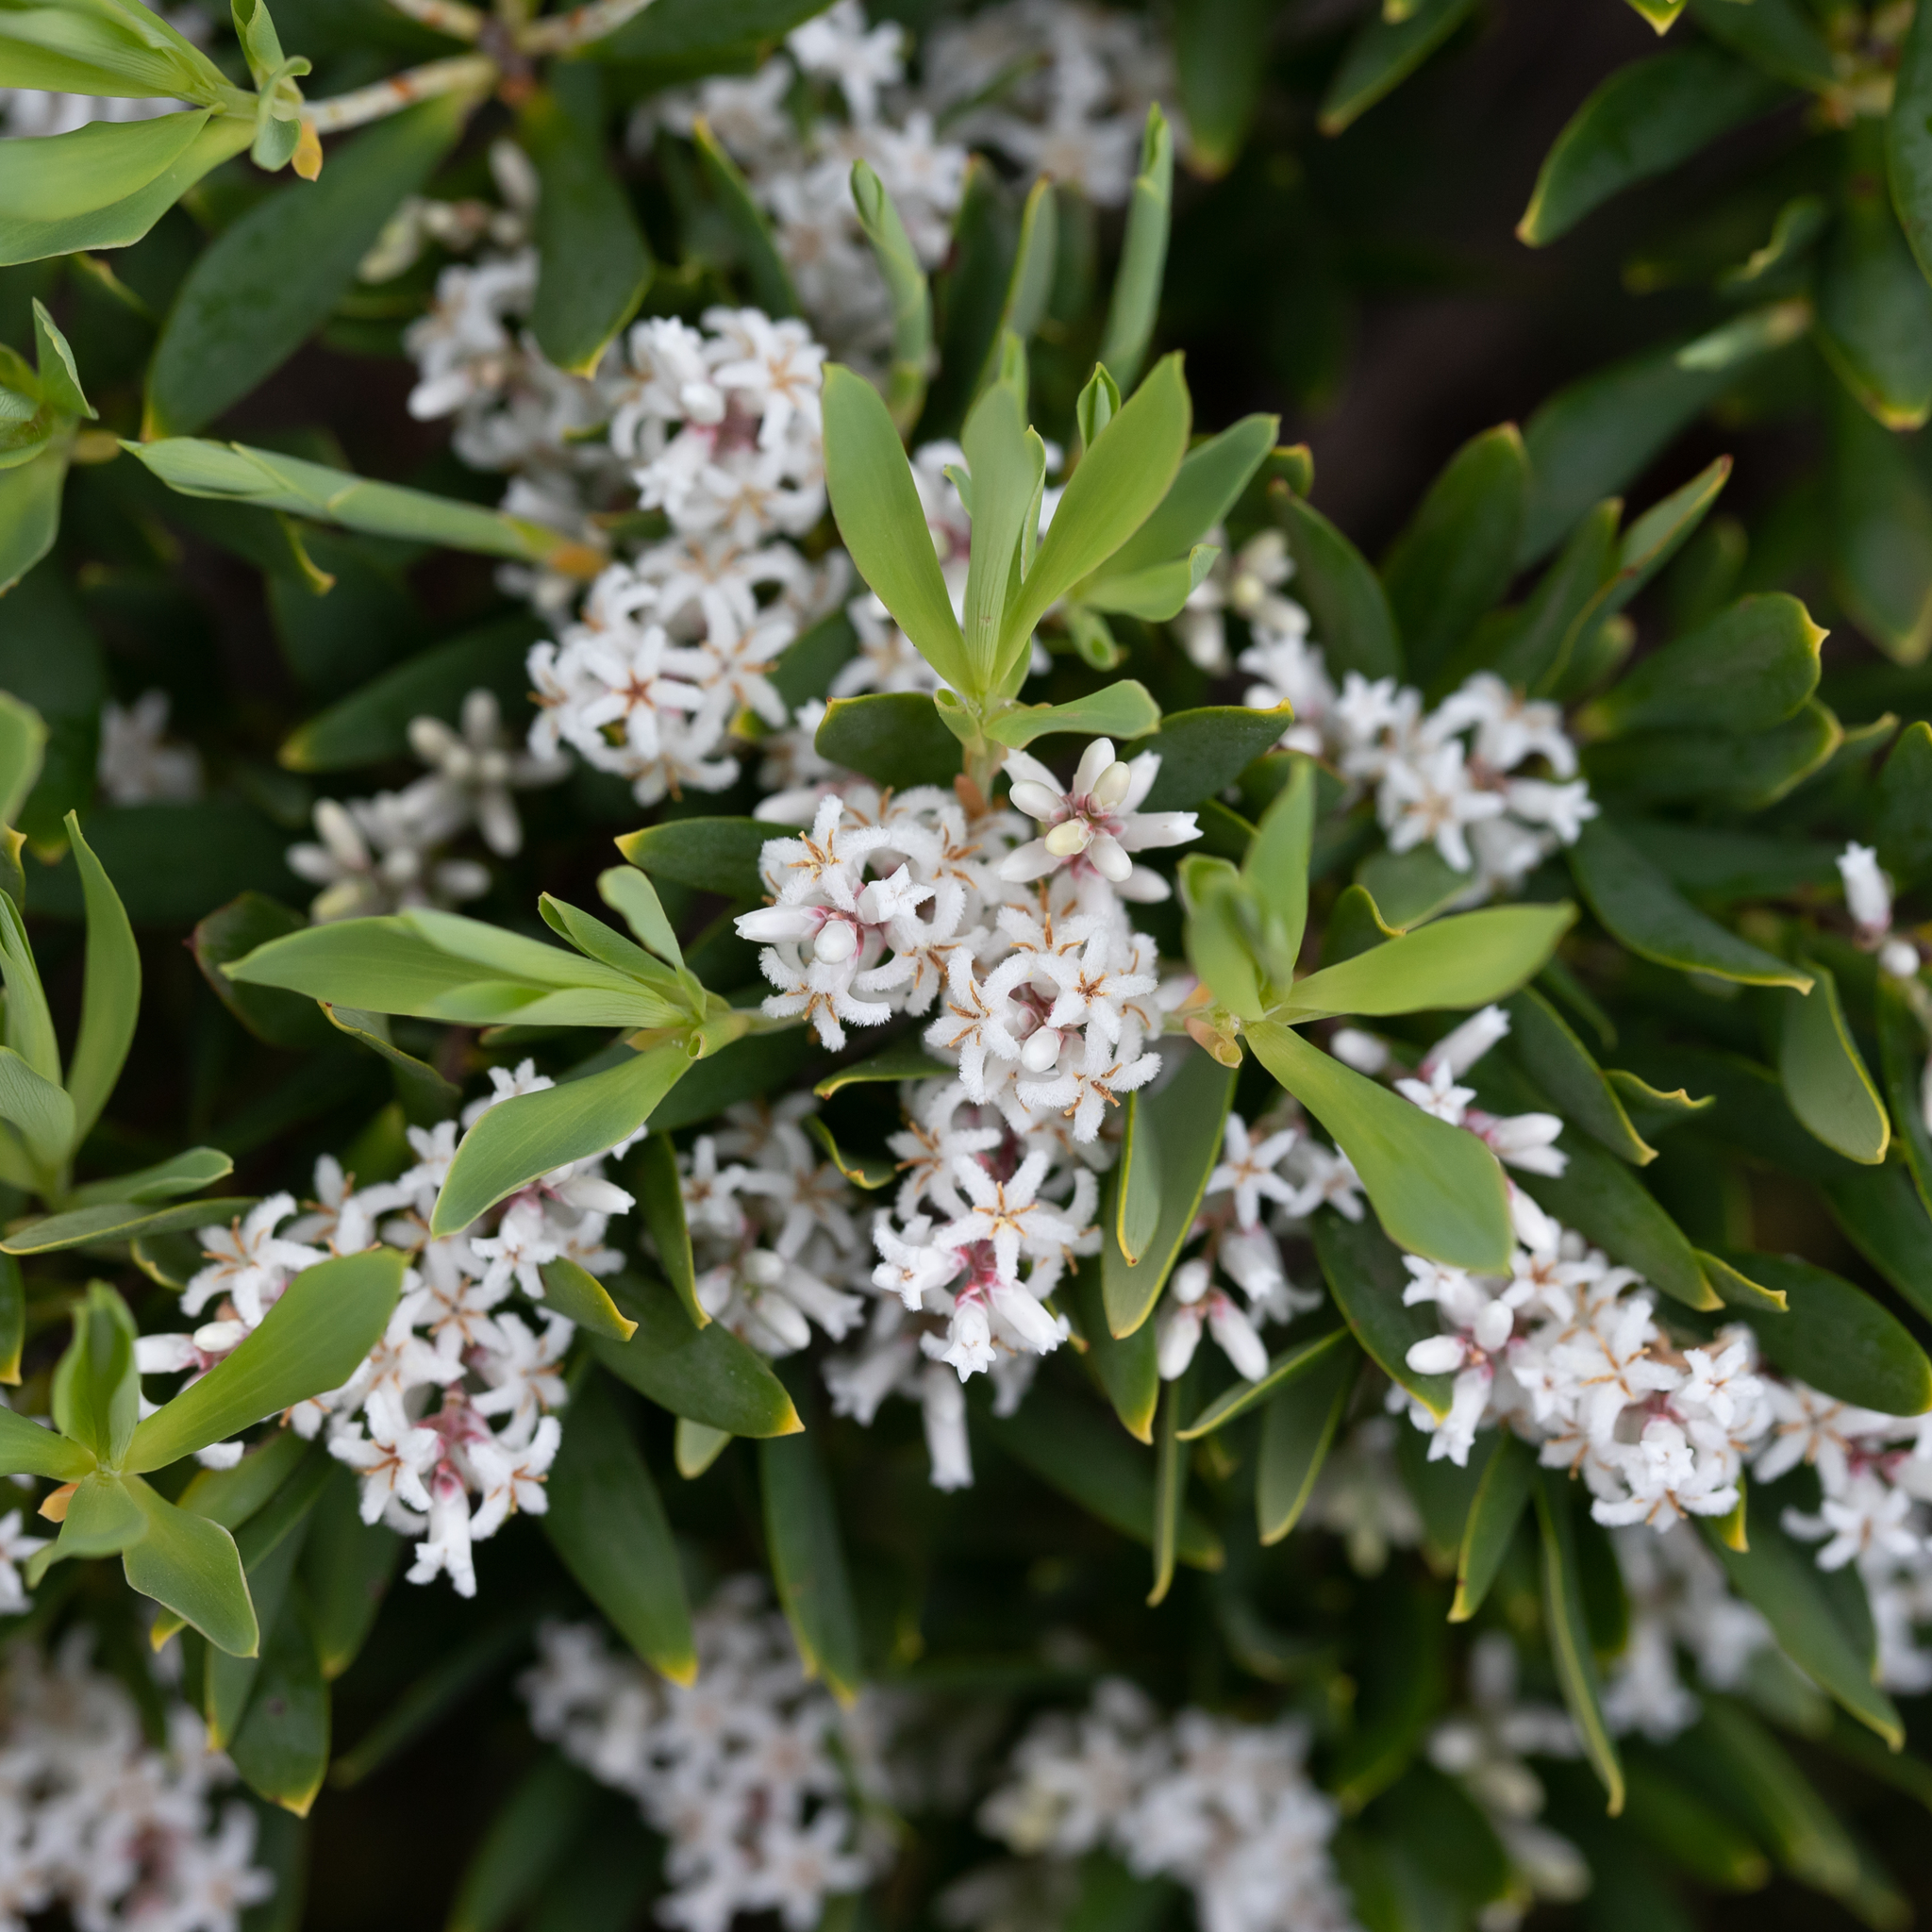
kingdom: Plantae
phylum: Tracheophyta
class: Magnoliopsida
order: Ericales
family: Ericaceae
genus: Leptecophylla
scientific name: Leptecophylla parvifolia
